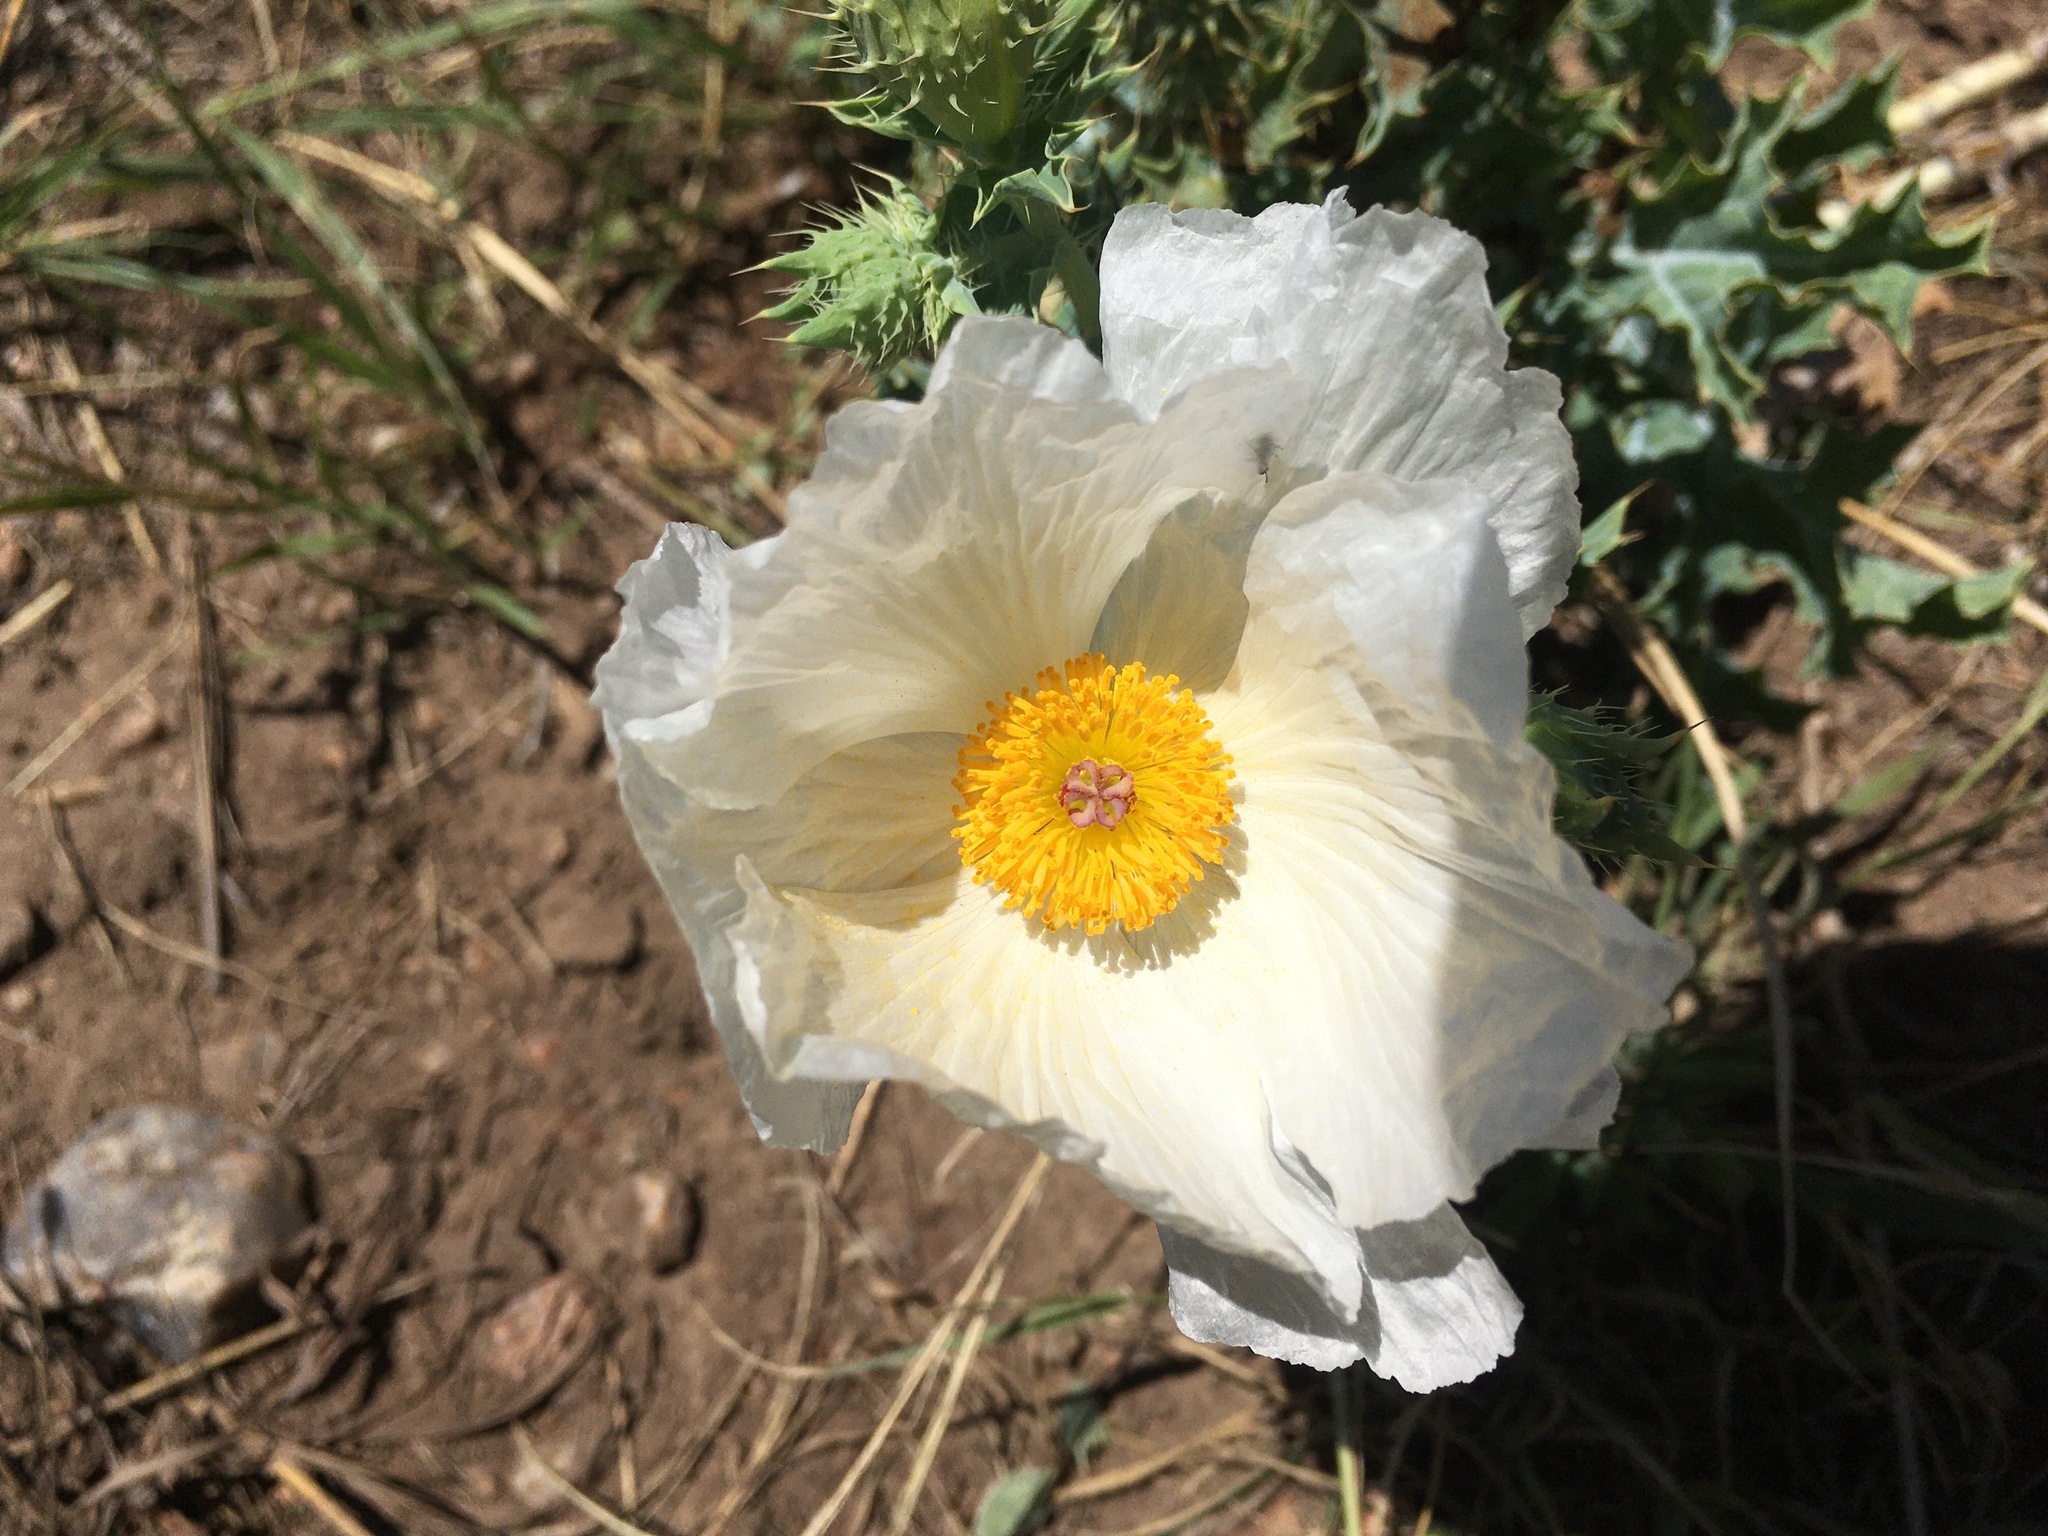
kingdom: Plantae
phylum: Tracheophyta
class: Magnoliopsida
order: Ranunculales
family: Papaveraceae
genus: Argemone
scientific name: Argemone polyanthemos
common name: Plains prickly-poppy
